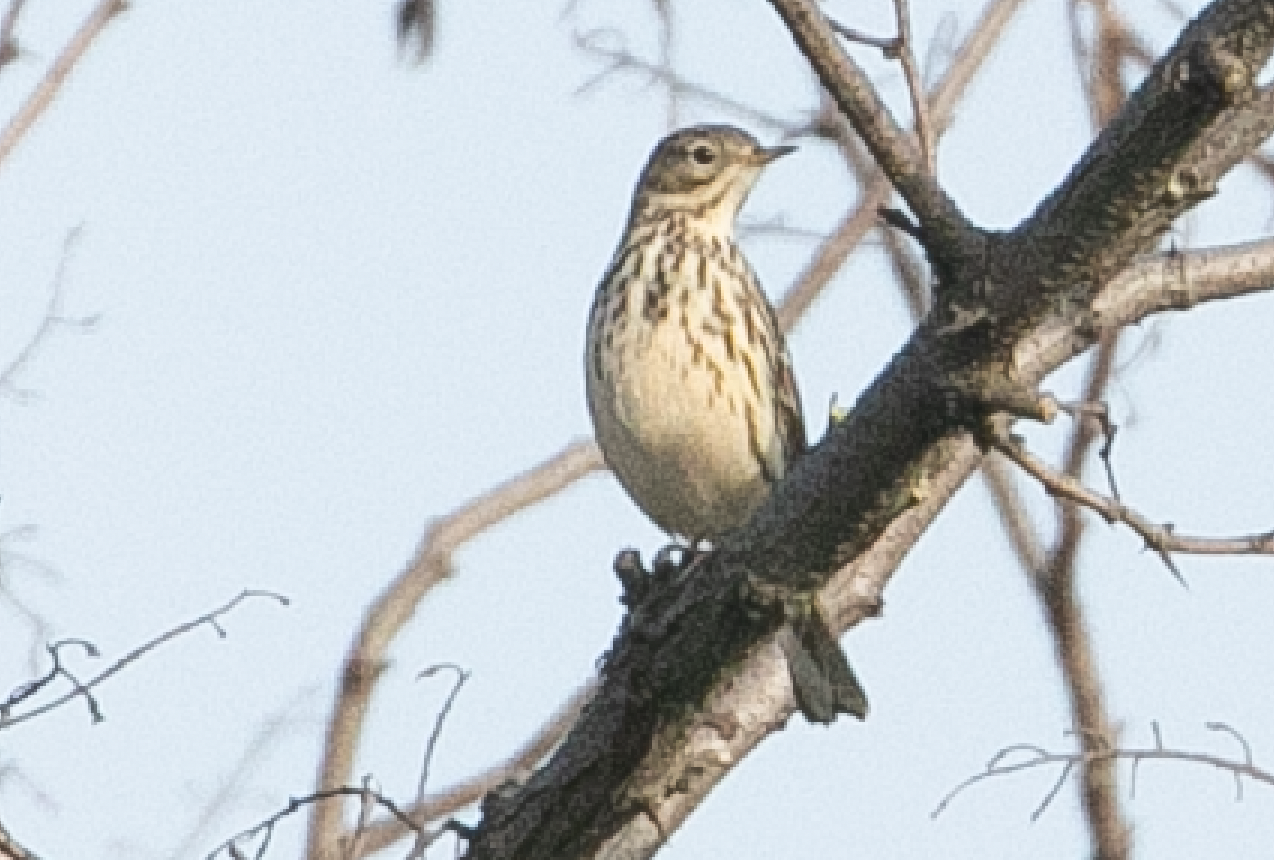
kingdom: Animalia
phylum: Chordata
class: Aves
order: Passeriformes
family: Motacillidae
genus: Anthus
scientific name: Anthus pratensis
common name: Meadow pipit
